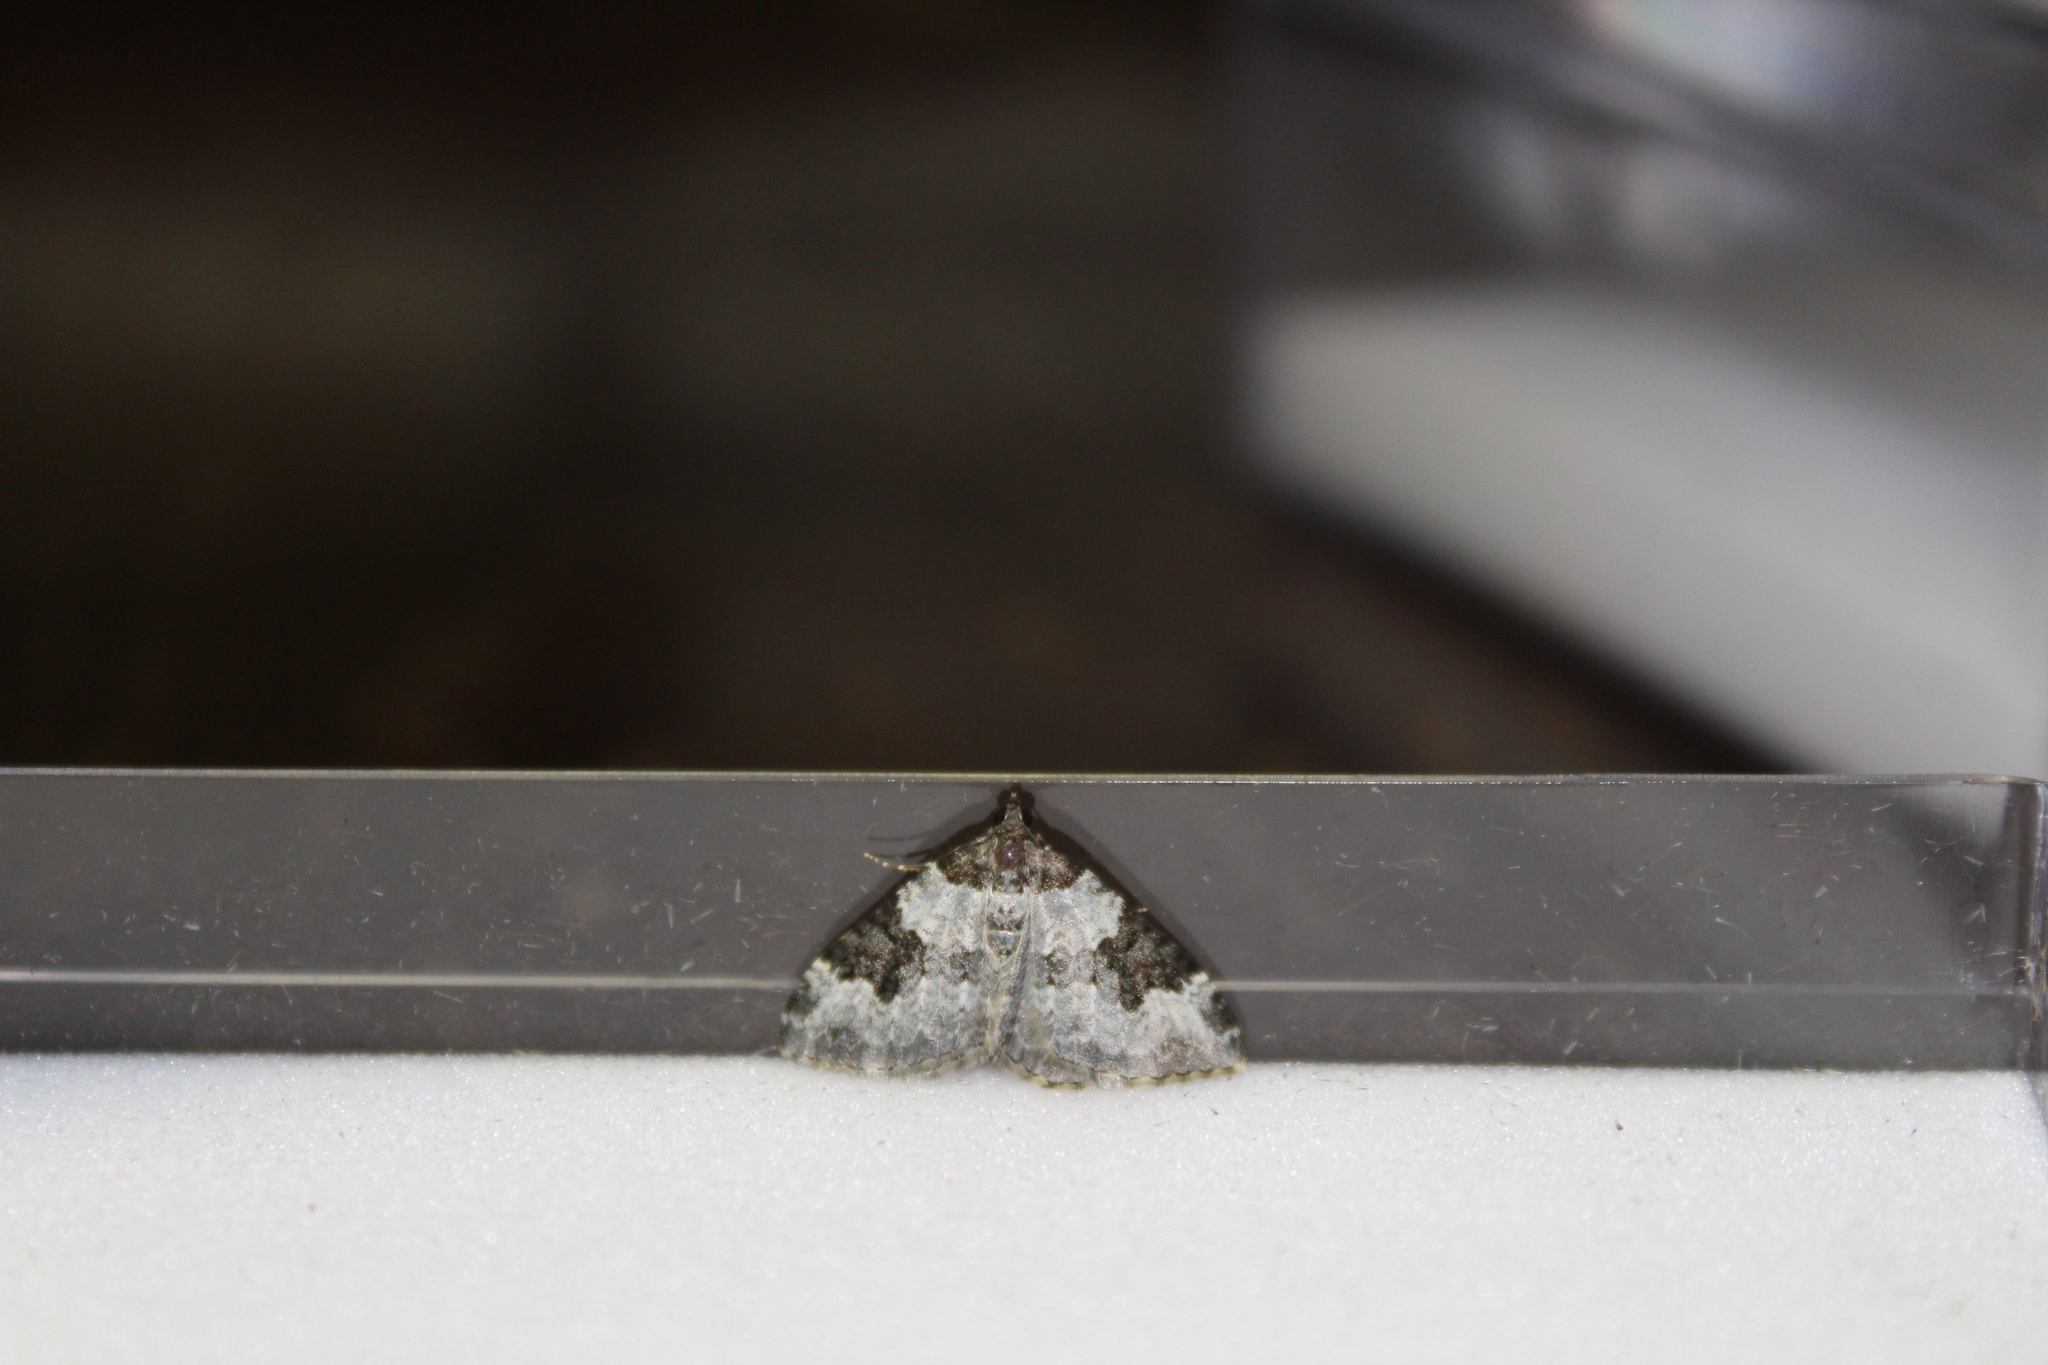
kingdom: Animalia
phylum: Arthropoda
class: Insecta
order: Lepidoptera
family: Geometridae
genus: Xanthorhoe
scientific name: Xanthorhoe fluctuata
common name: Garden carpet
